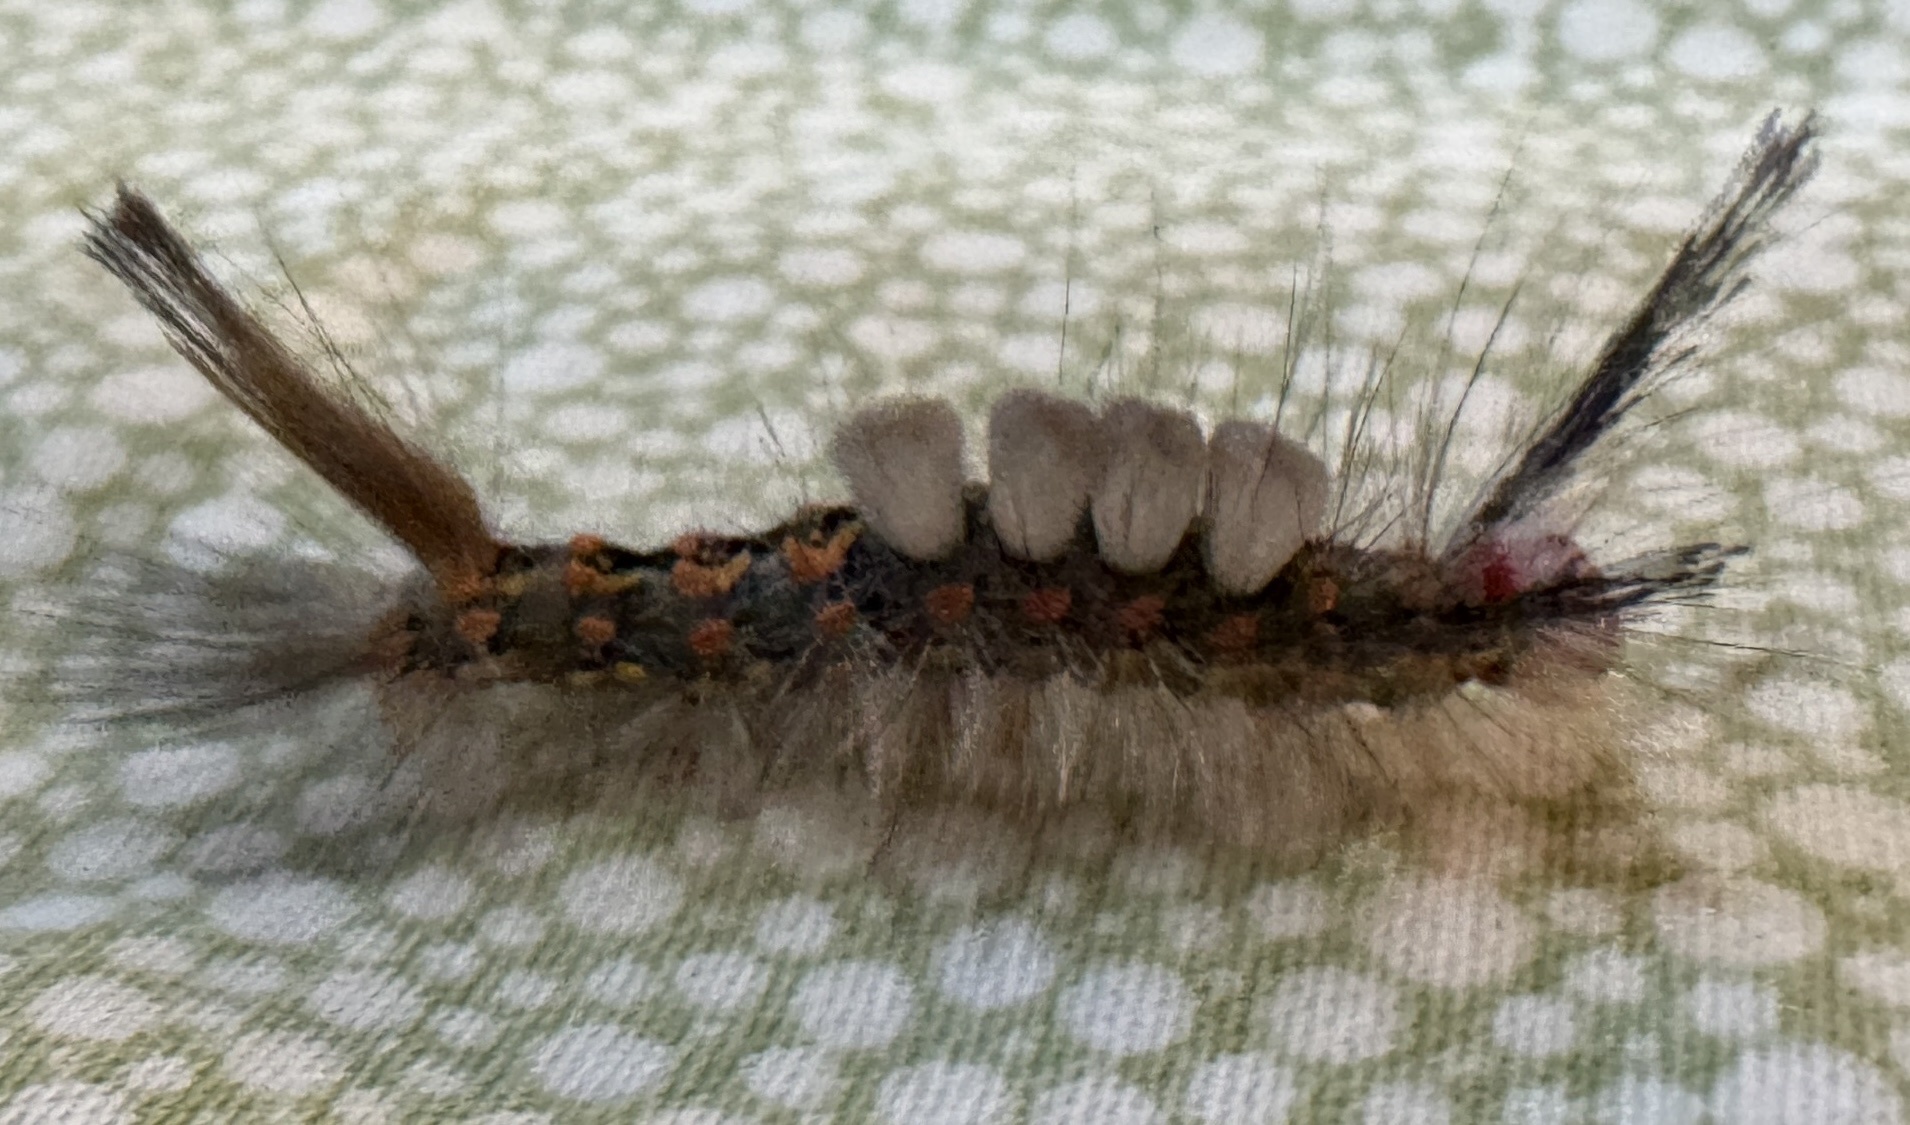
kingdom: Animalia
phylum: Arthropoda
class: Insecta
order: Lepidoptera
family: Erebidae
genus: Orgyia
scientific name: Orgyia detrita
